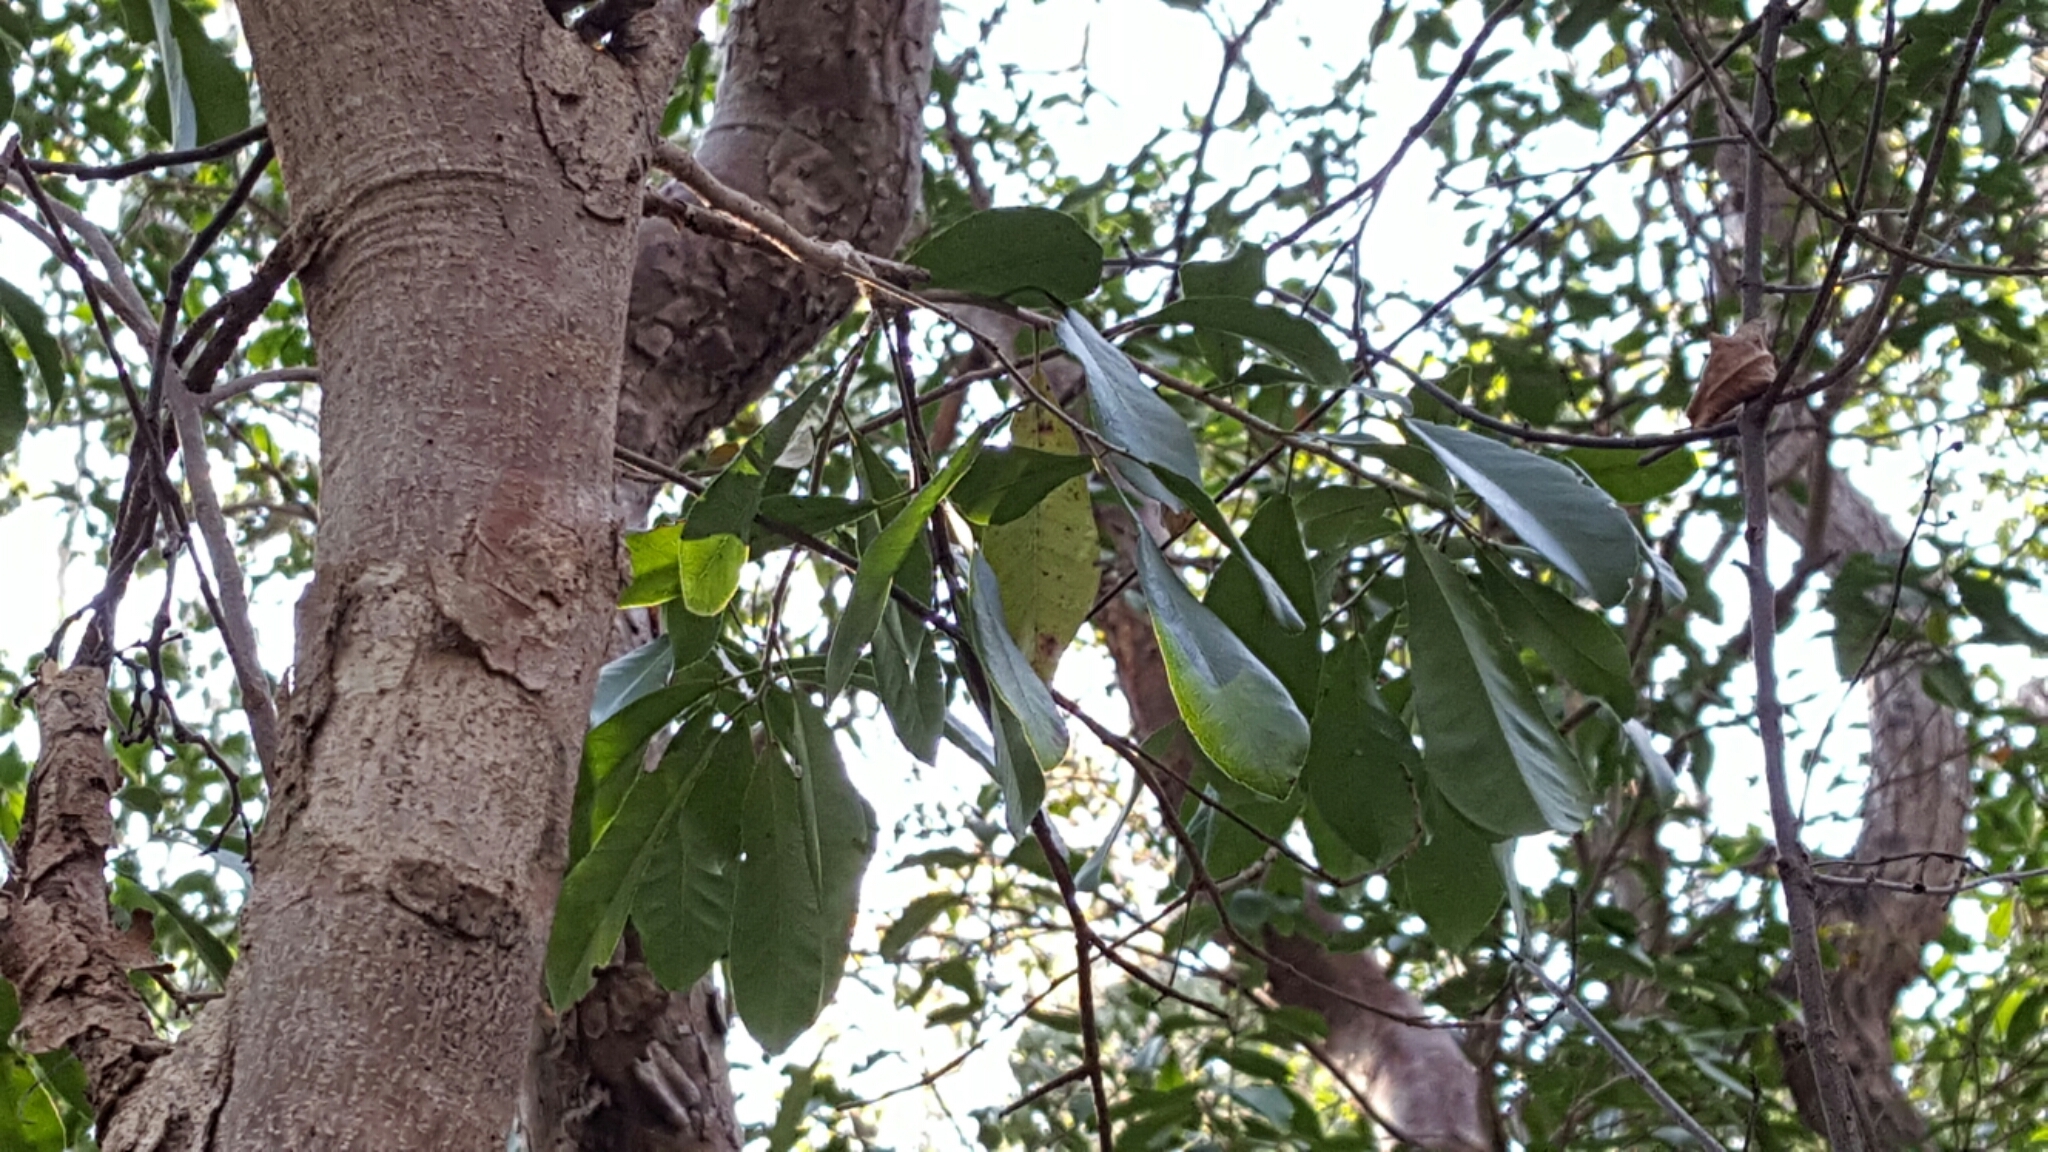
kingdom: Plantae
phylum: Tracheophyta
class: Magnoliopsida
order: Malpighiales
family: Euphorbiaceae
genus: Gymnanthes
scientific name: Gymnanthes lucida
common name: Oysterwood
